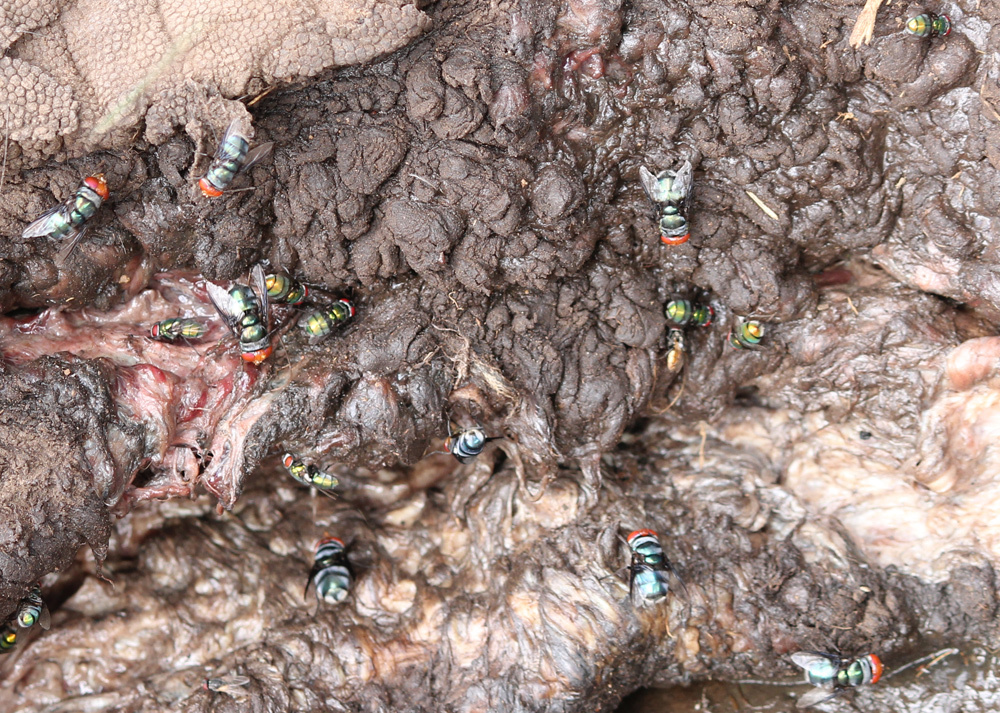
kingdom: Animalia
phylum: Arthropoda
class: Insecta
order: Diptera
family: Calliphoridae
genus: Chrysomya
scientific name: Chrysomya marginalis
